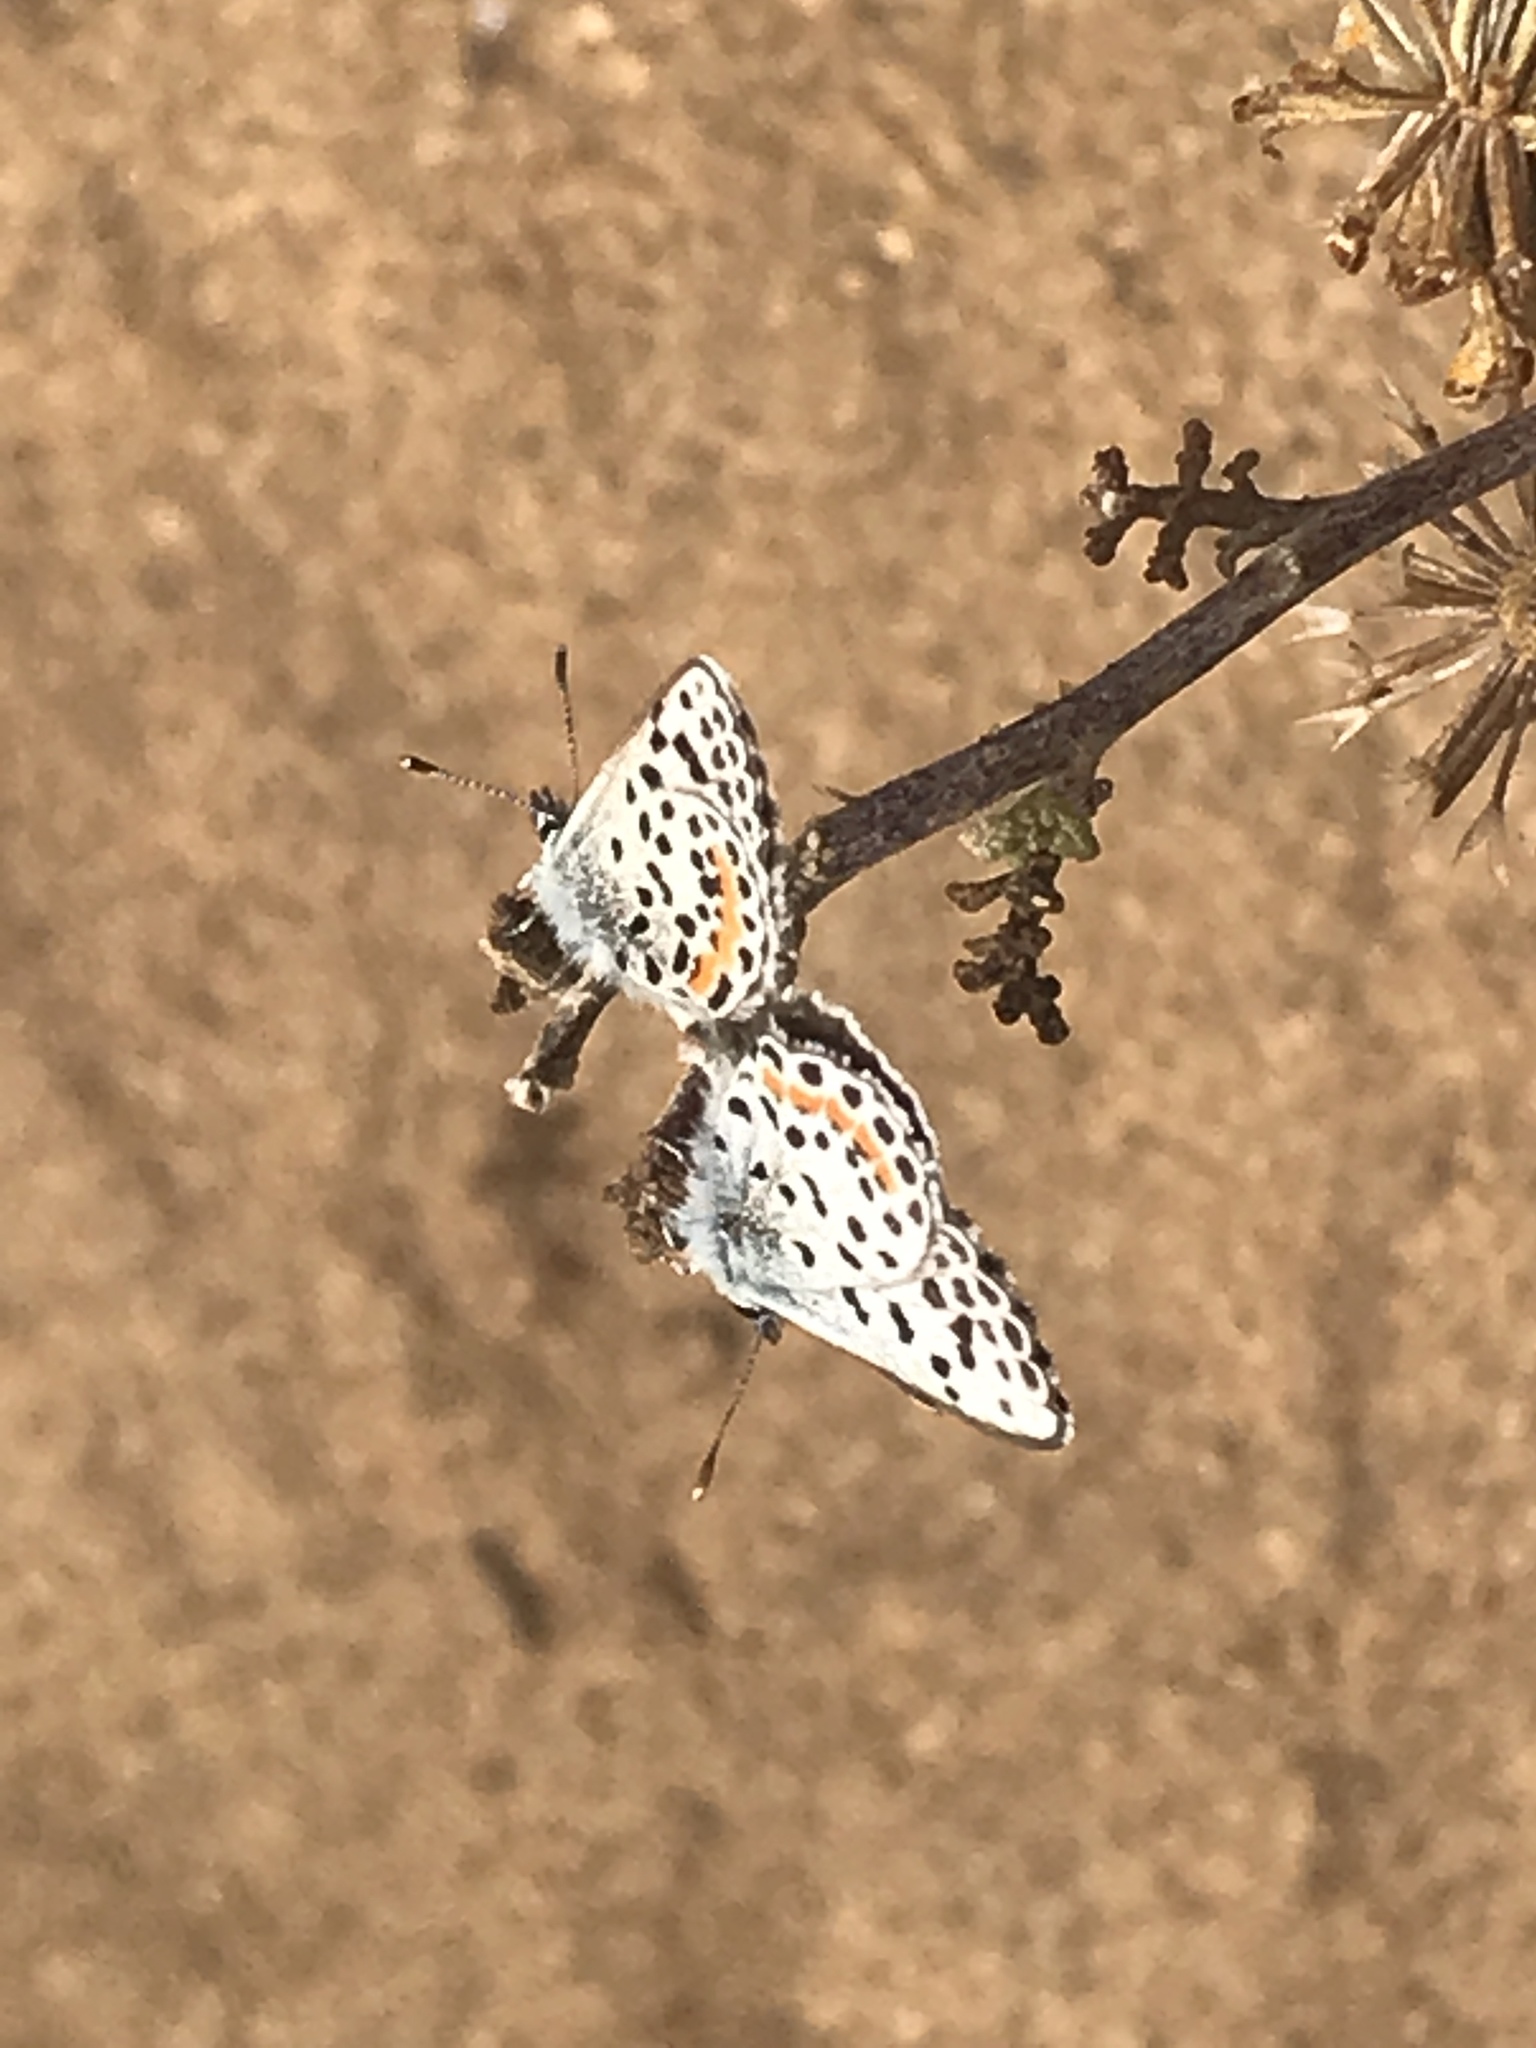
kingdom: Animalia
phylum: Arthropoda
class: Insecta
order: Lepidoptera
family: Lycaenidae
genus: Philotes
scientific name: Philotes bernardino
